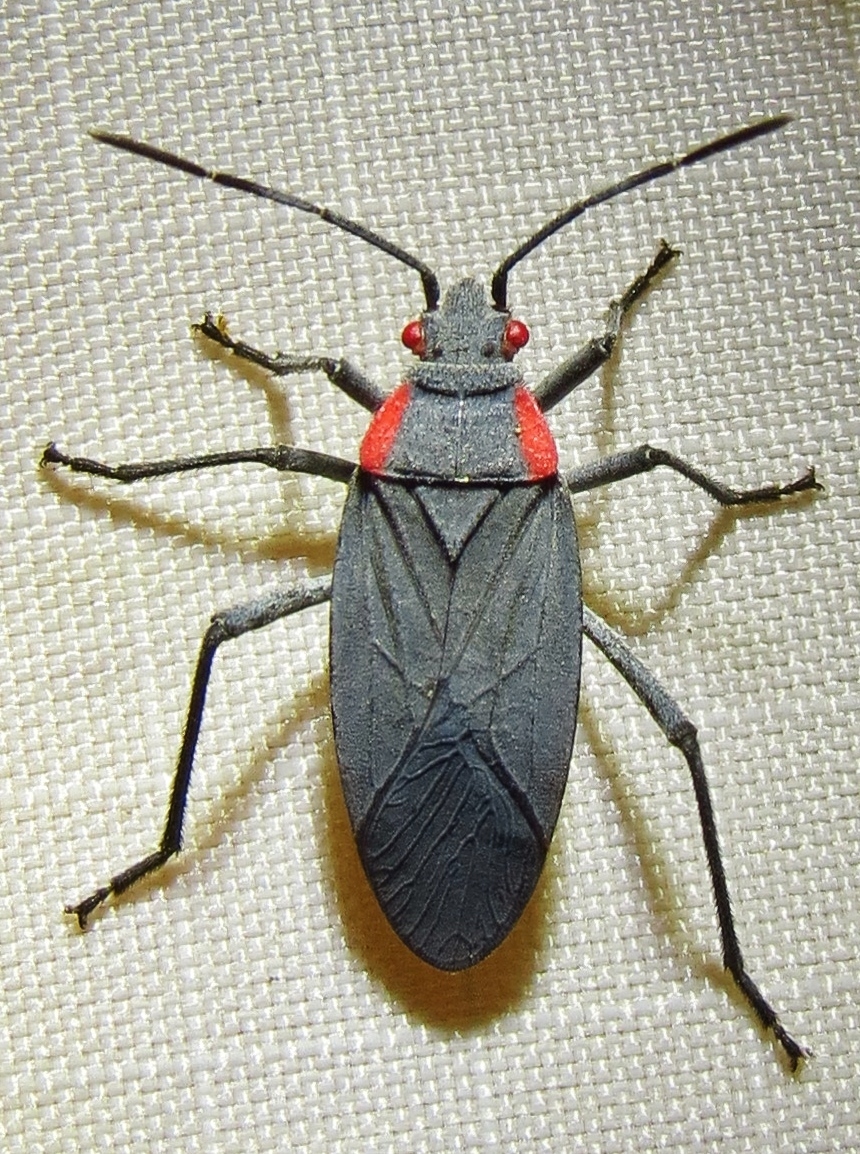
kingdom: Animalia
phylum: Arthropoda
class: Insecta
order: Hemiptera
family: Rhopalidae
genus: Jadera
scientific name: Jadera haematoloma
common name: Red-shouldered bug
